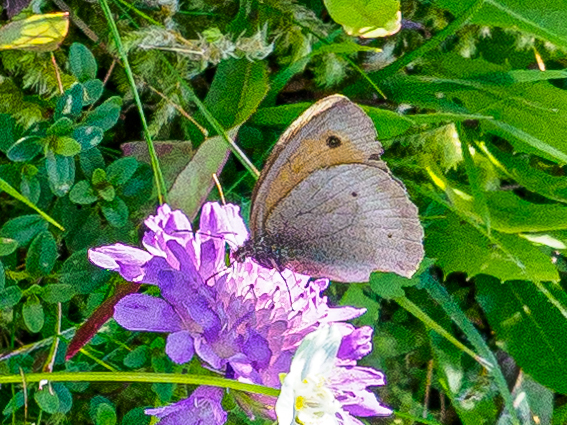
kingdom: Animalia
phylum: Arthropoda
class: Insecta
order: Lepidoptera
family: Nymphalidae
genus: Maniola
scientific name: Maniola jurtina
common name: Meadow brown
